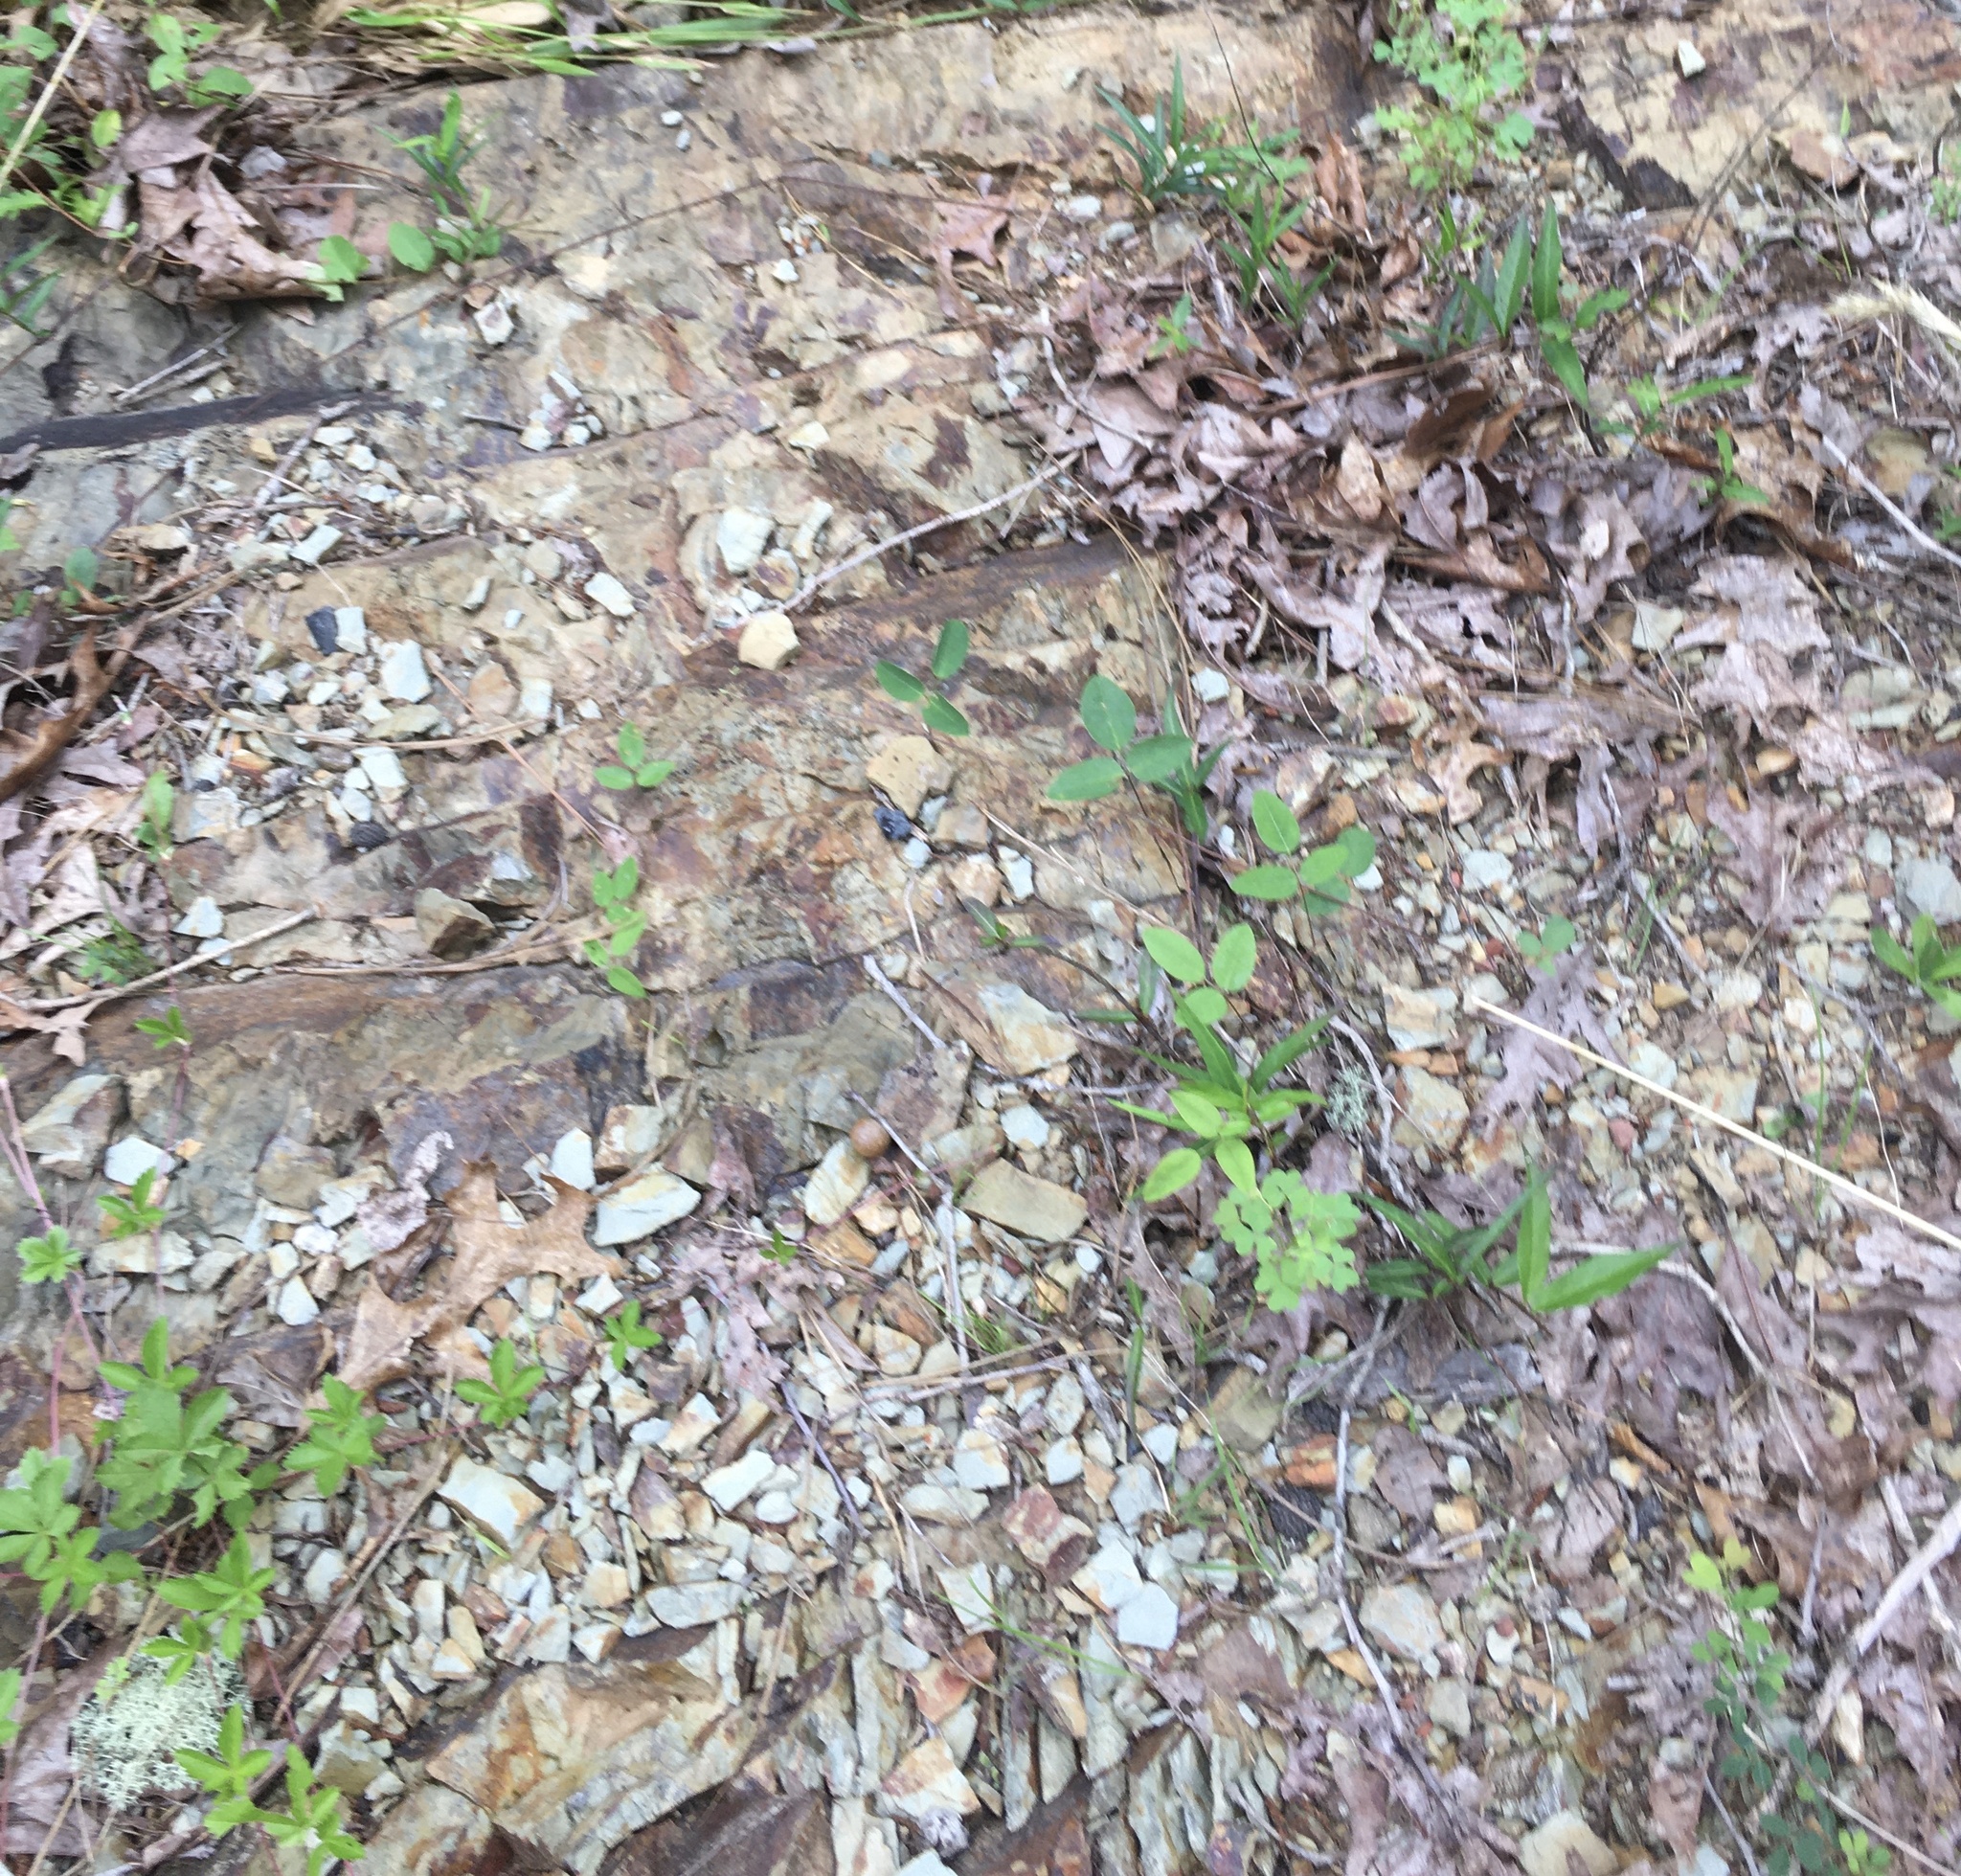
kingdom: Plantae
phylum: Tracheophyta
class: Magnoliopsida
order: Fabales
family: Fabaceae
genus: Baptisia
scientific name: Baptisia alba
